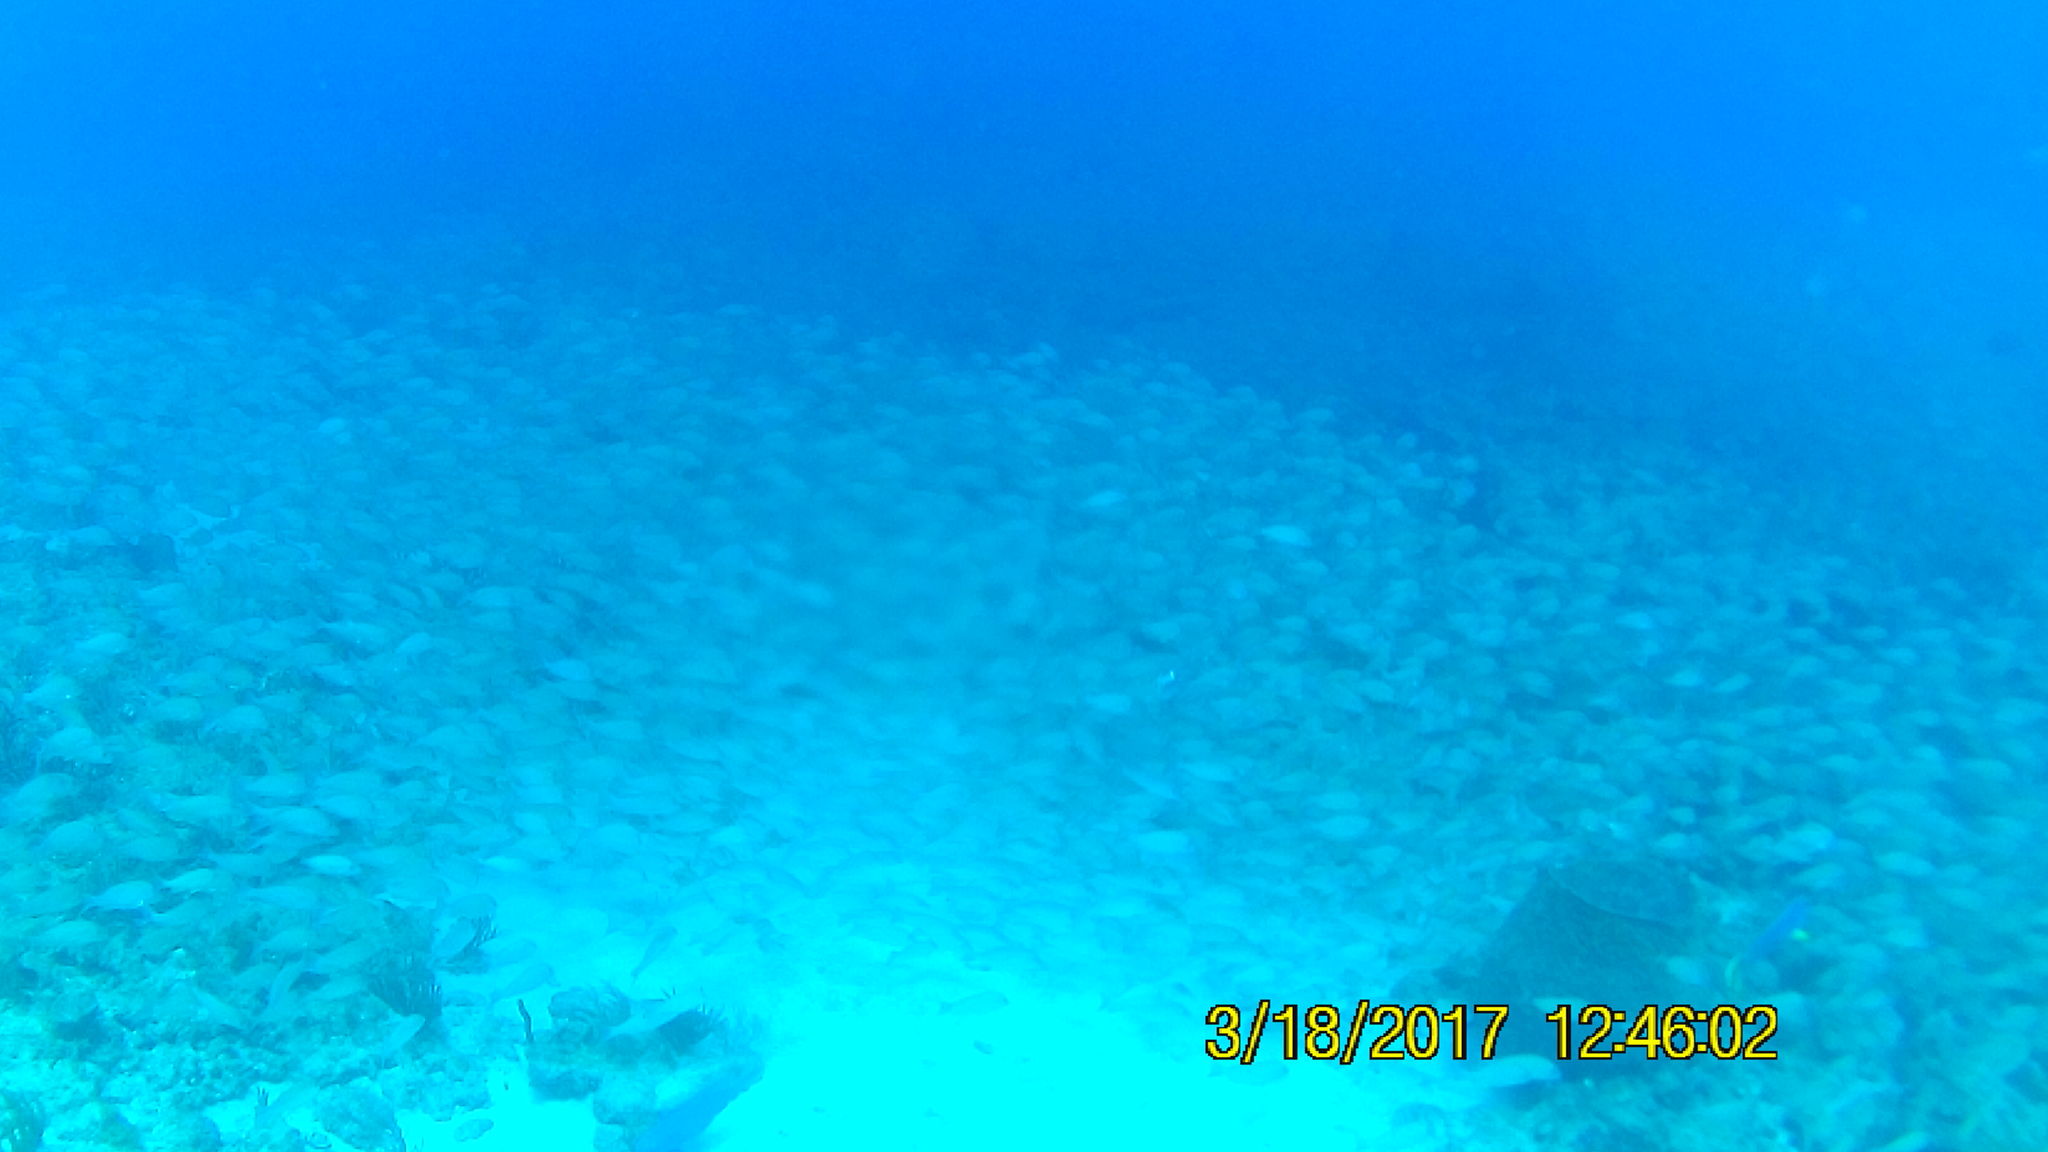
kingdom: Animalia
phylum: Chordata
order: Perciformes
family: Haemulidae
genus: Haemulon
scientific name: Haemulon flavolineatum
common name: French grunt
